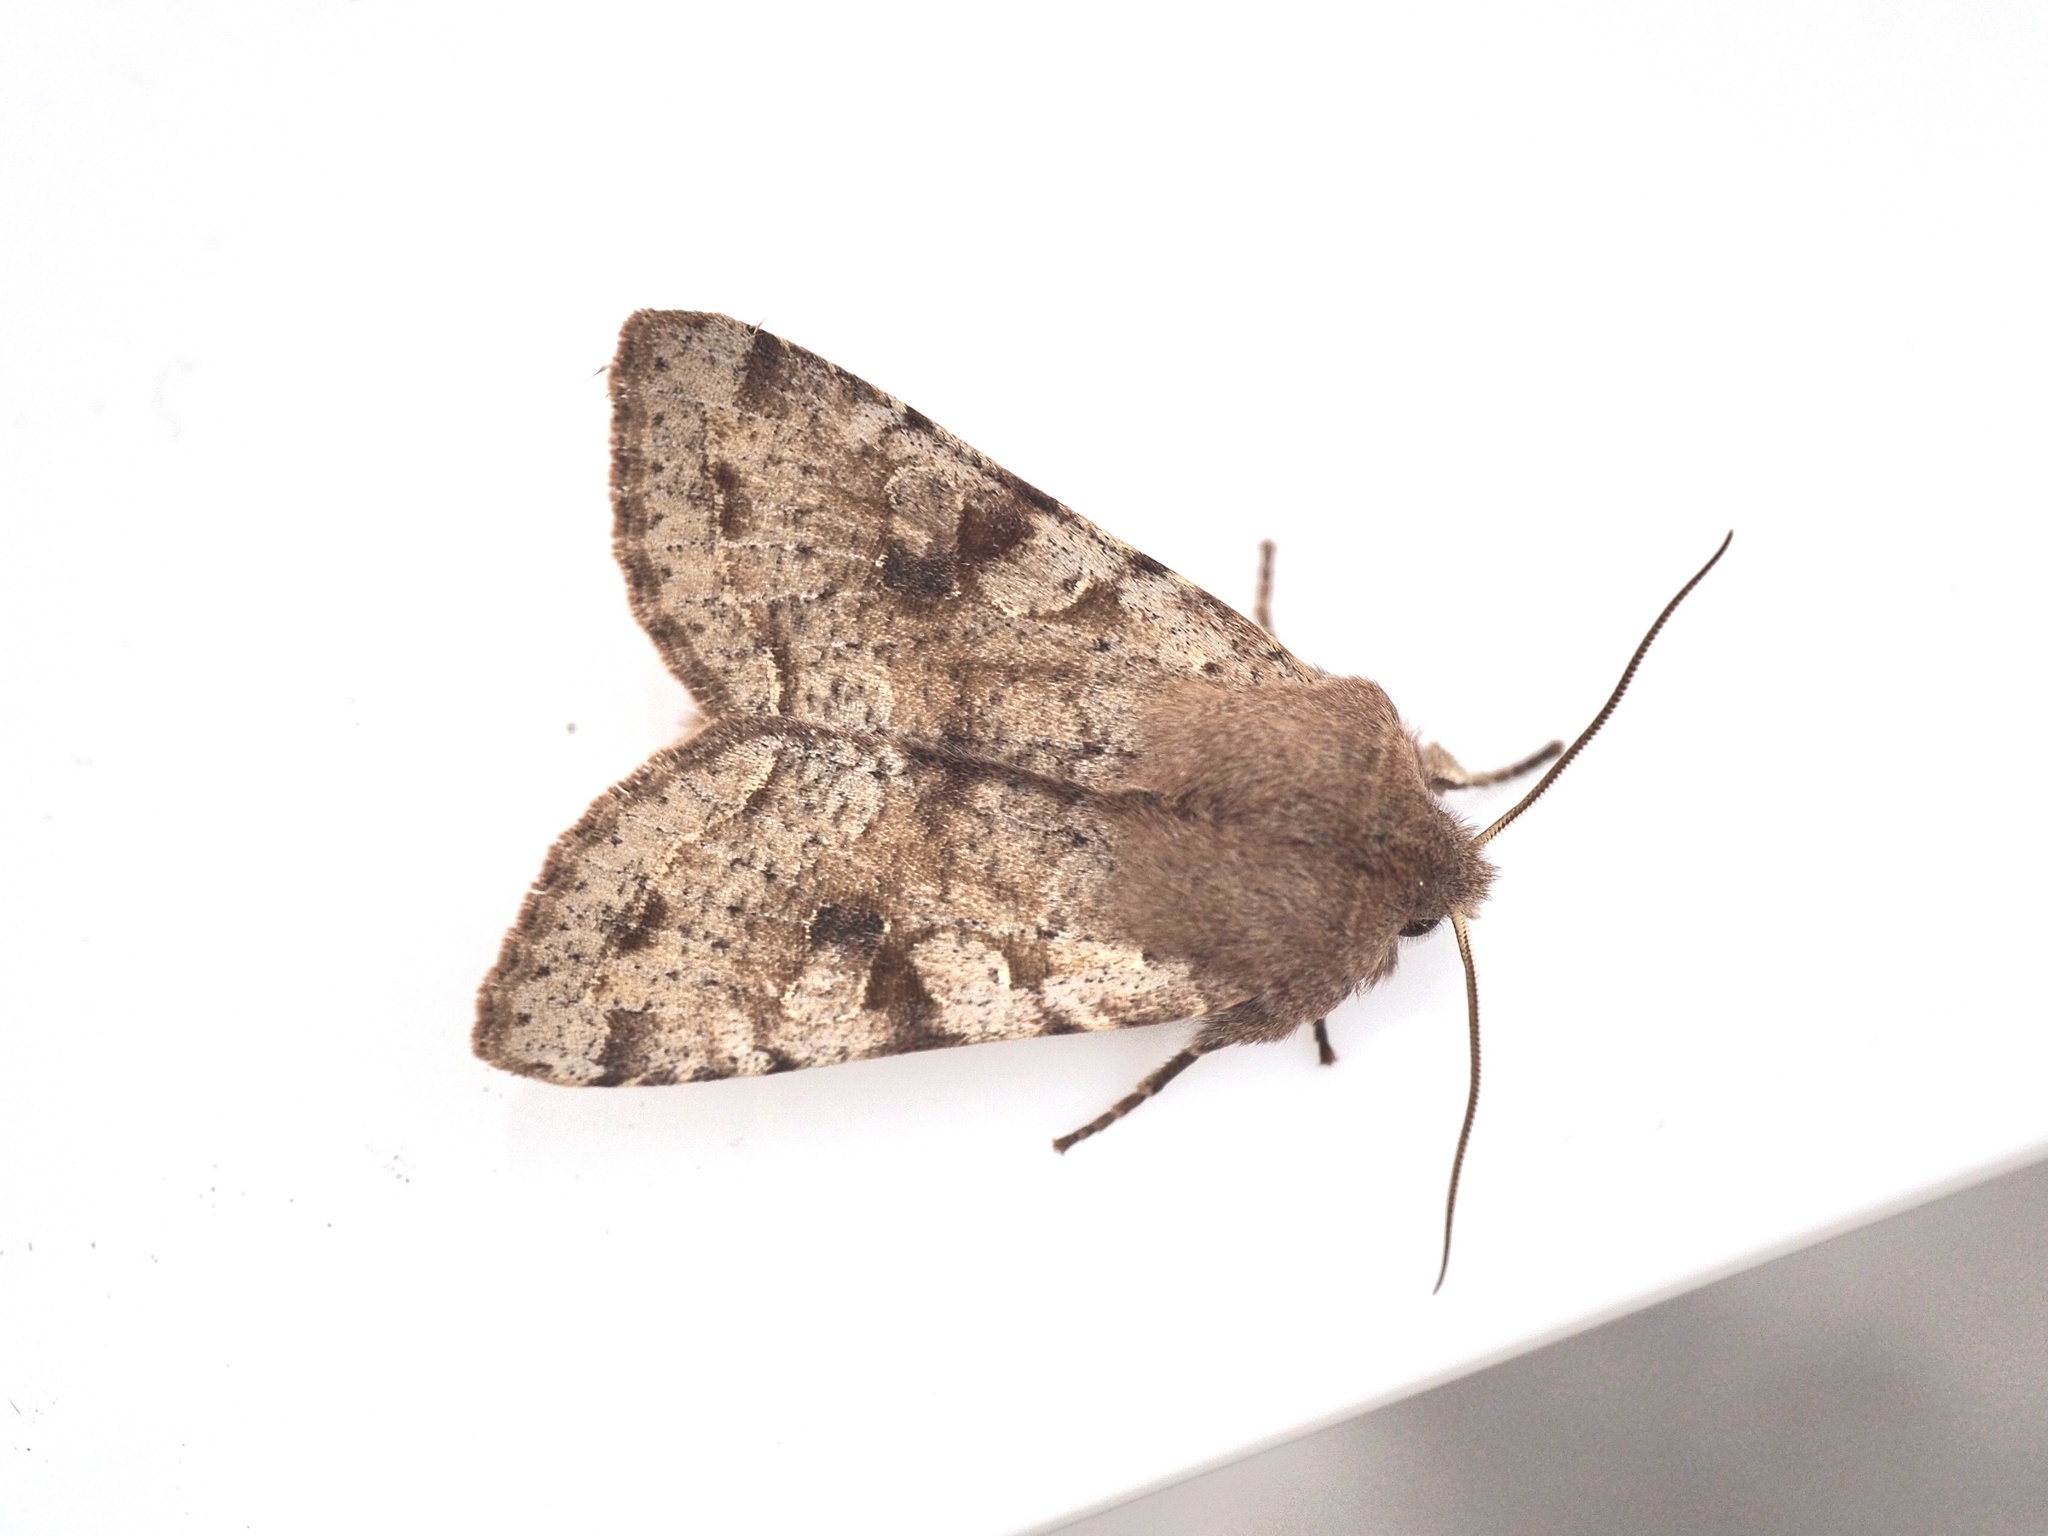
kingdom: Animalia
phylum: Arthropoda
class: Insecta
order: Lepidoptera
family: Noctuidae
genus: Orthosia
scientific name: Orthosia incerta
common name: Clouded drab
